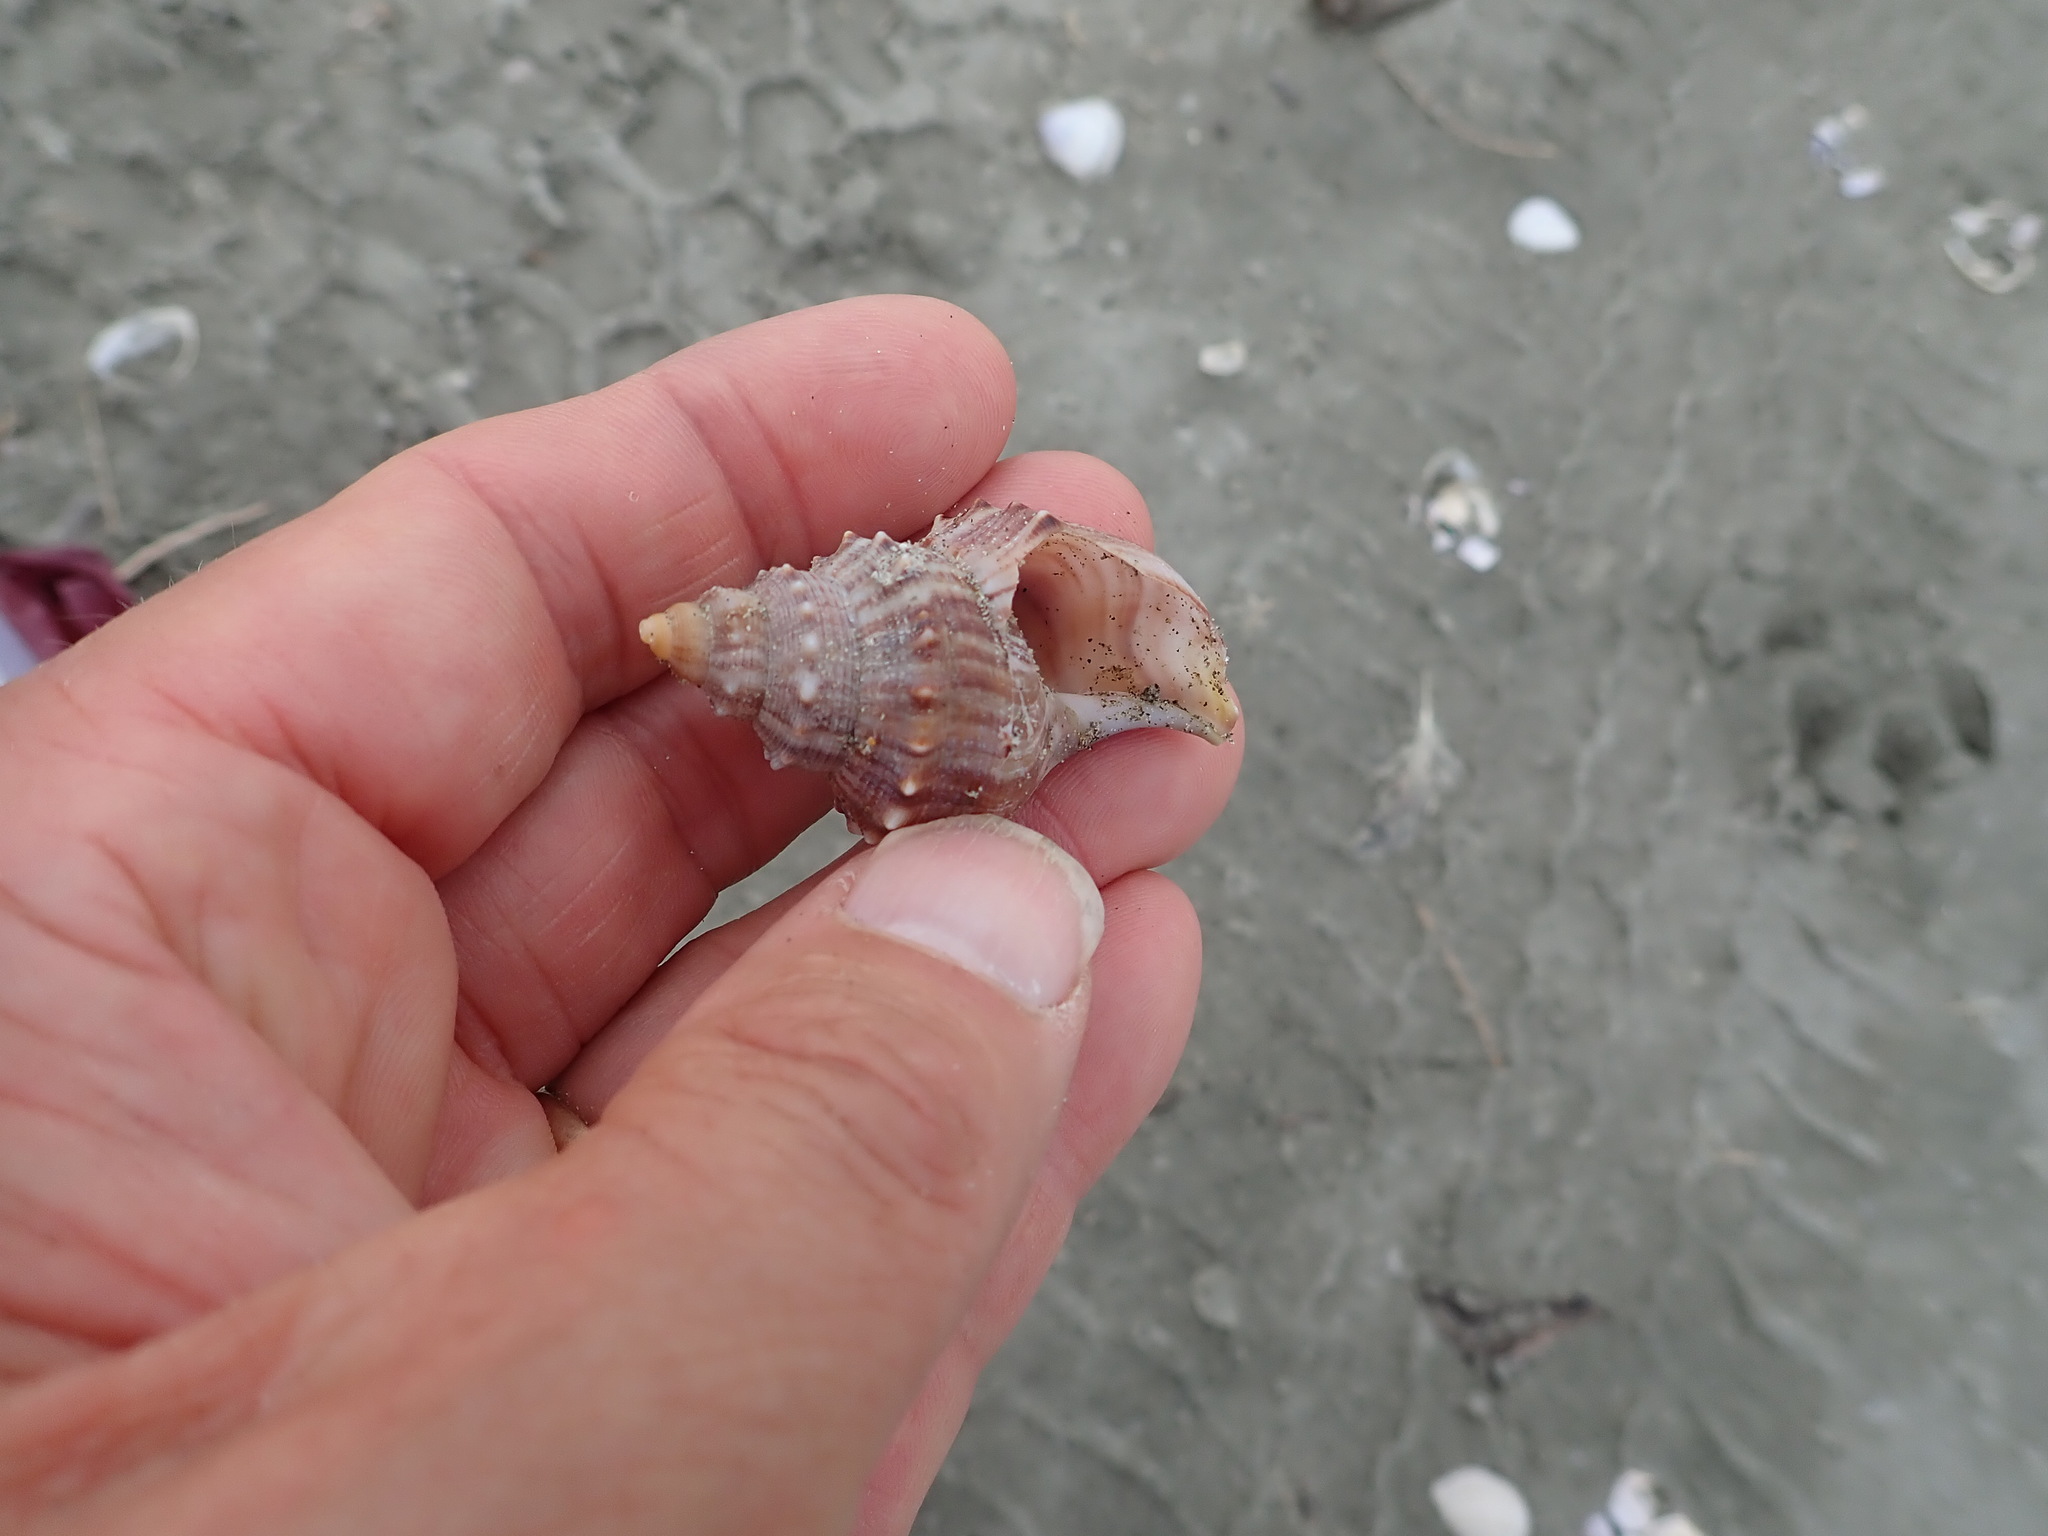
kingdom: Animalia
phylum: Mollusca
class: Gastropoda
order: Littorinimorpha
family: Struthiolariidae
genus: Struthiolaria
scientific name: Struthiolaria papulosa
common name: Large ostrich foot
